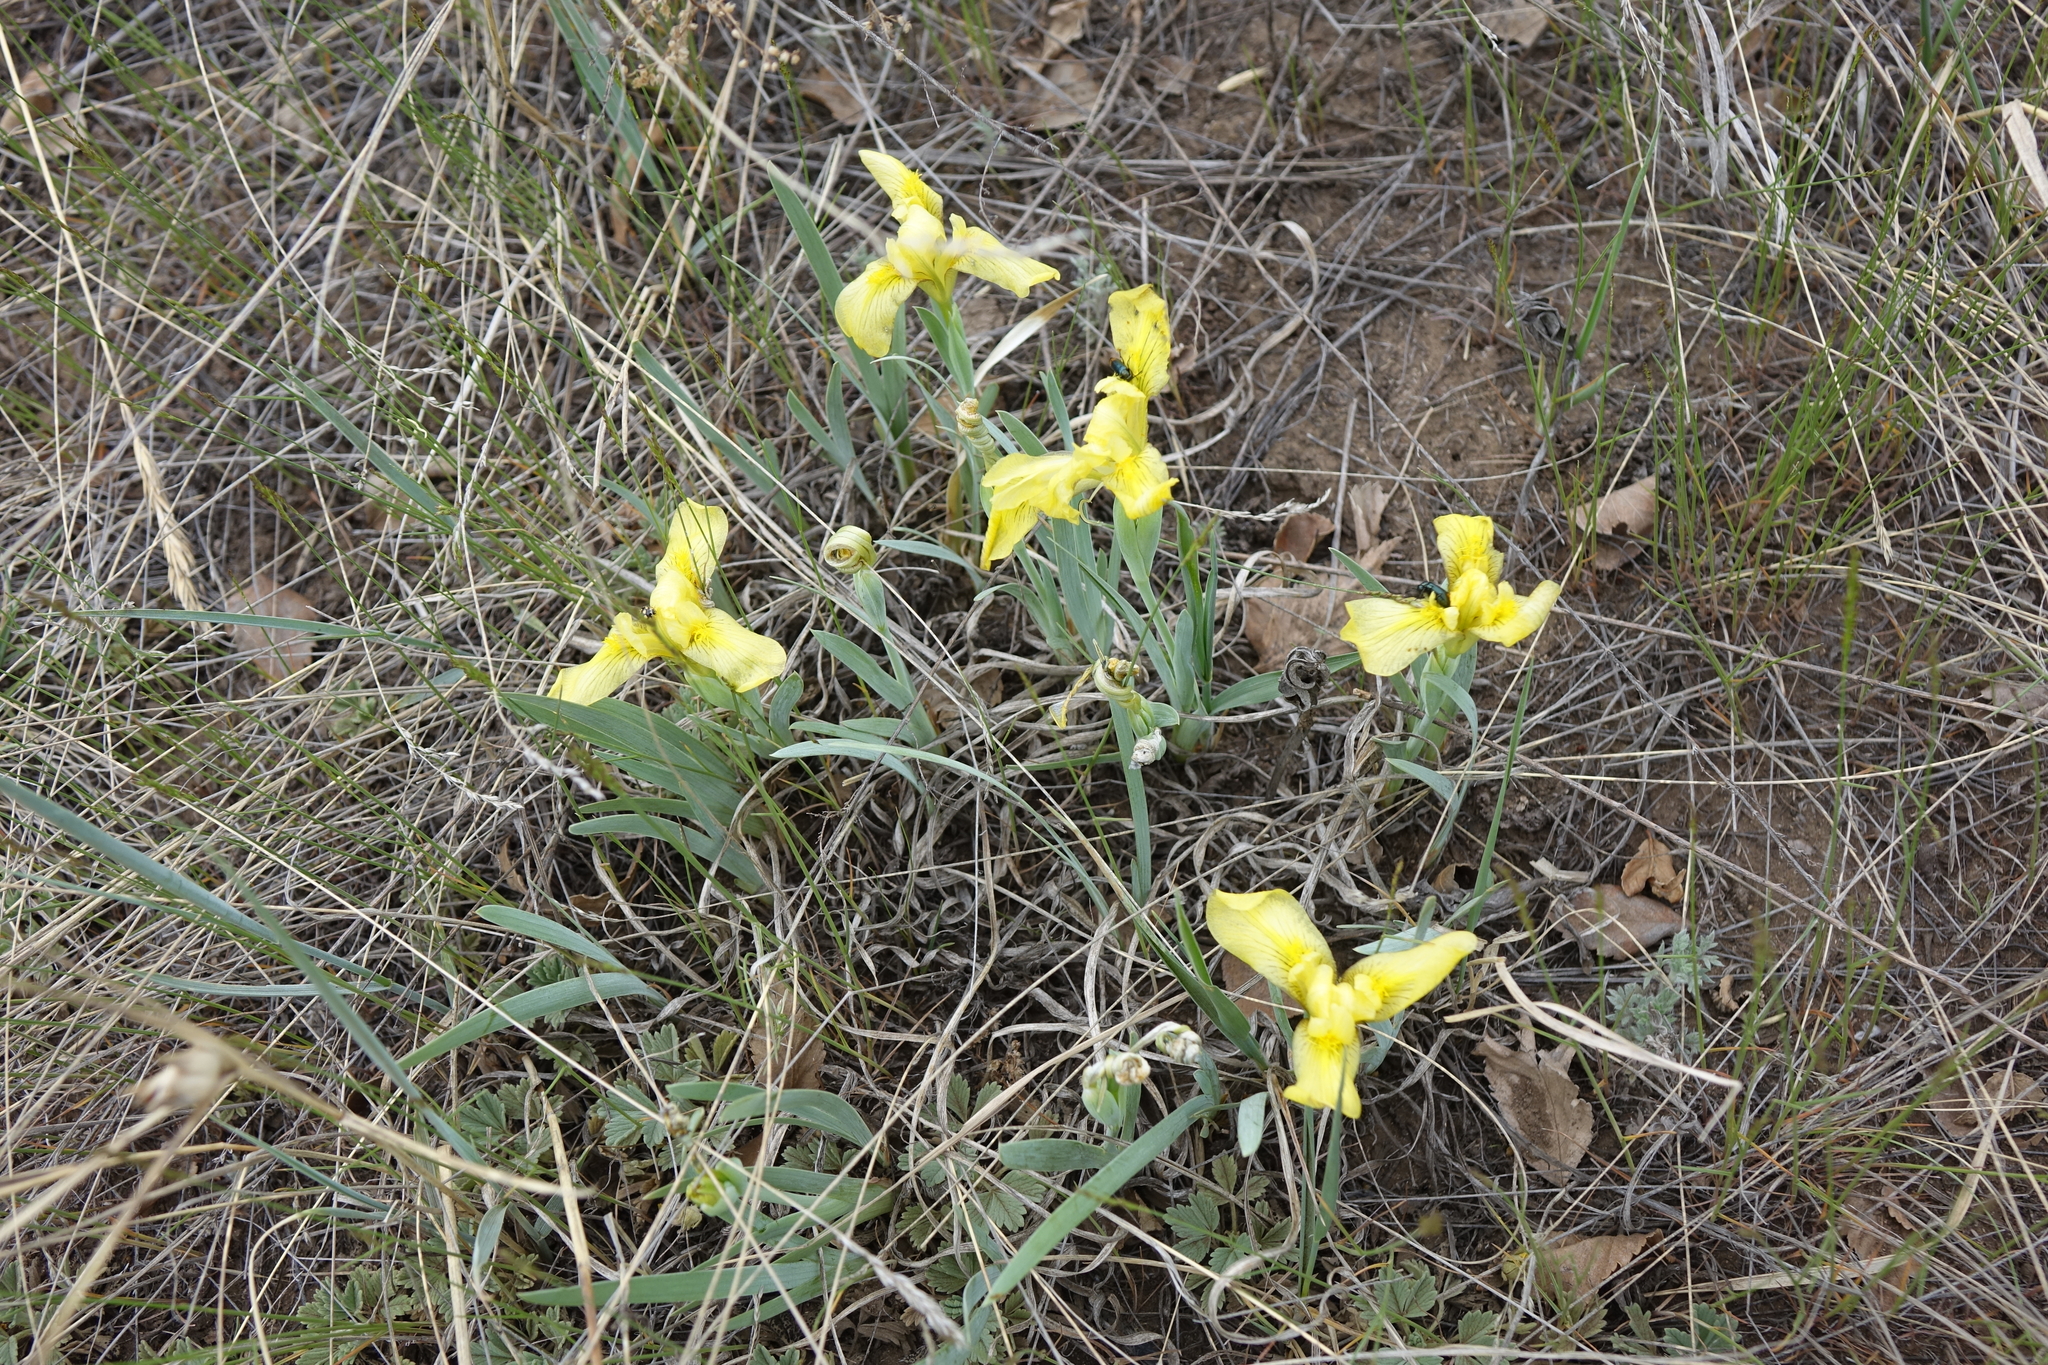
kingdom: Plantae
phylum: Tracheophyta
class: Liliopsida
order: Asparagales
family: Iridaceae
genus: Iris
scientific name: Iris humilis
